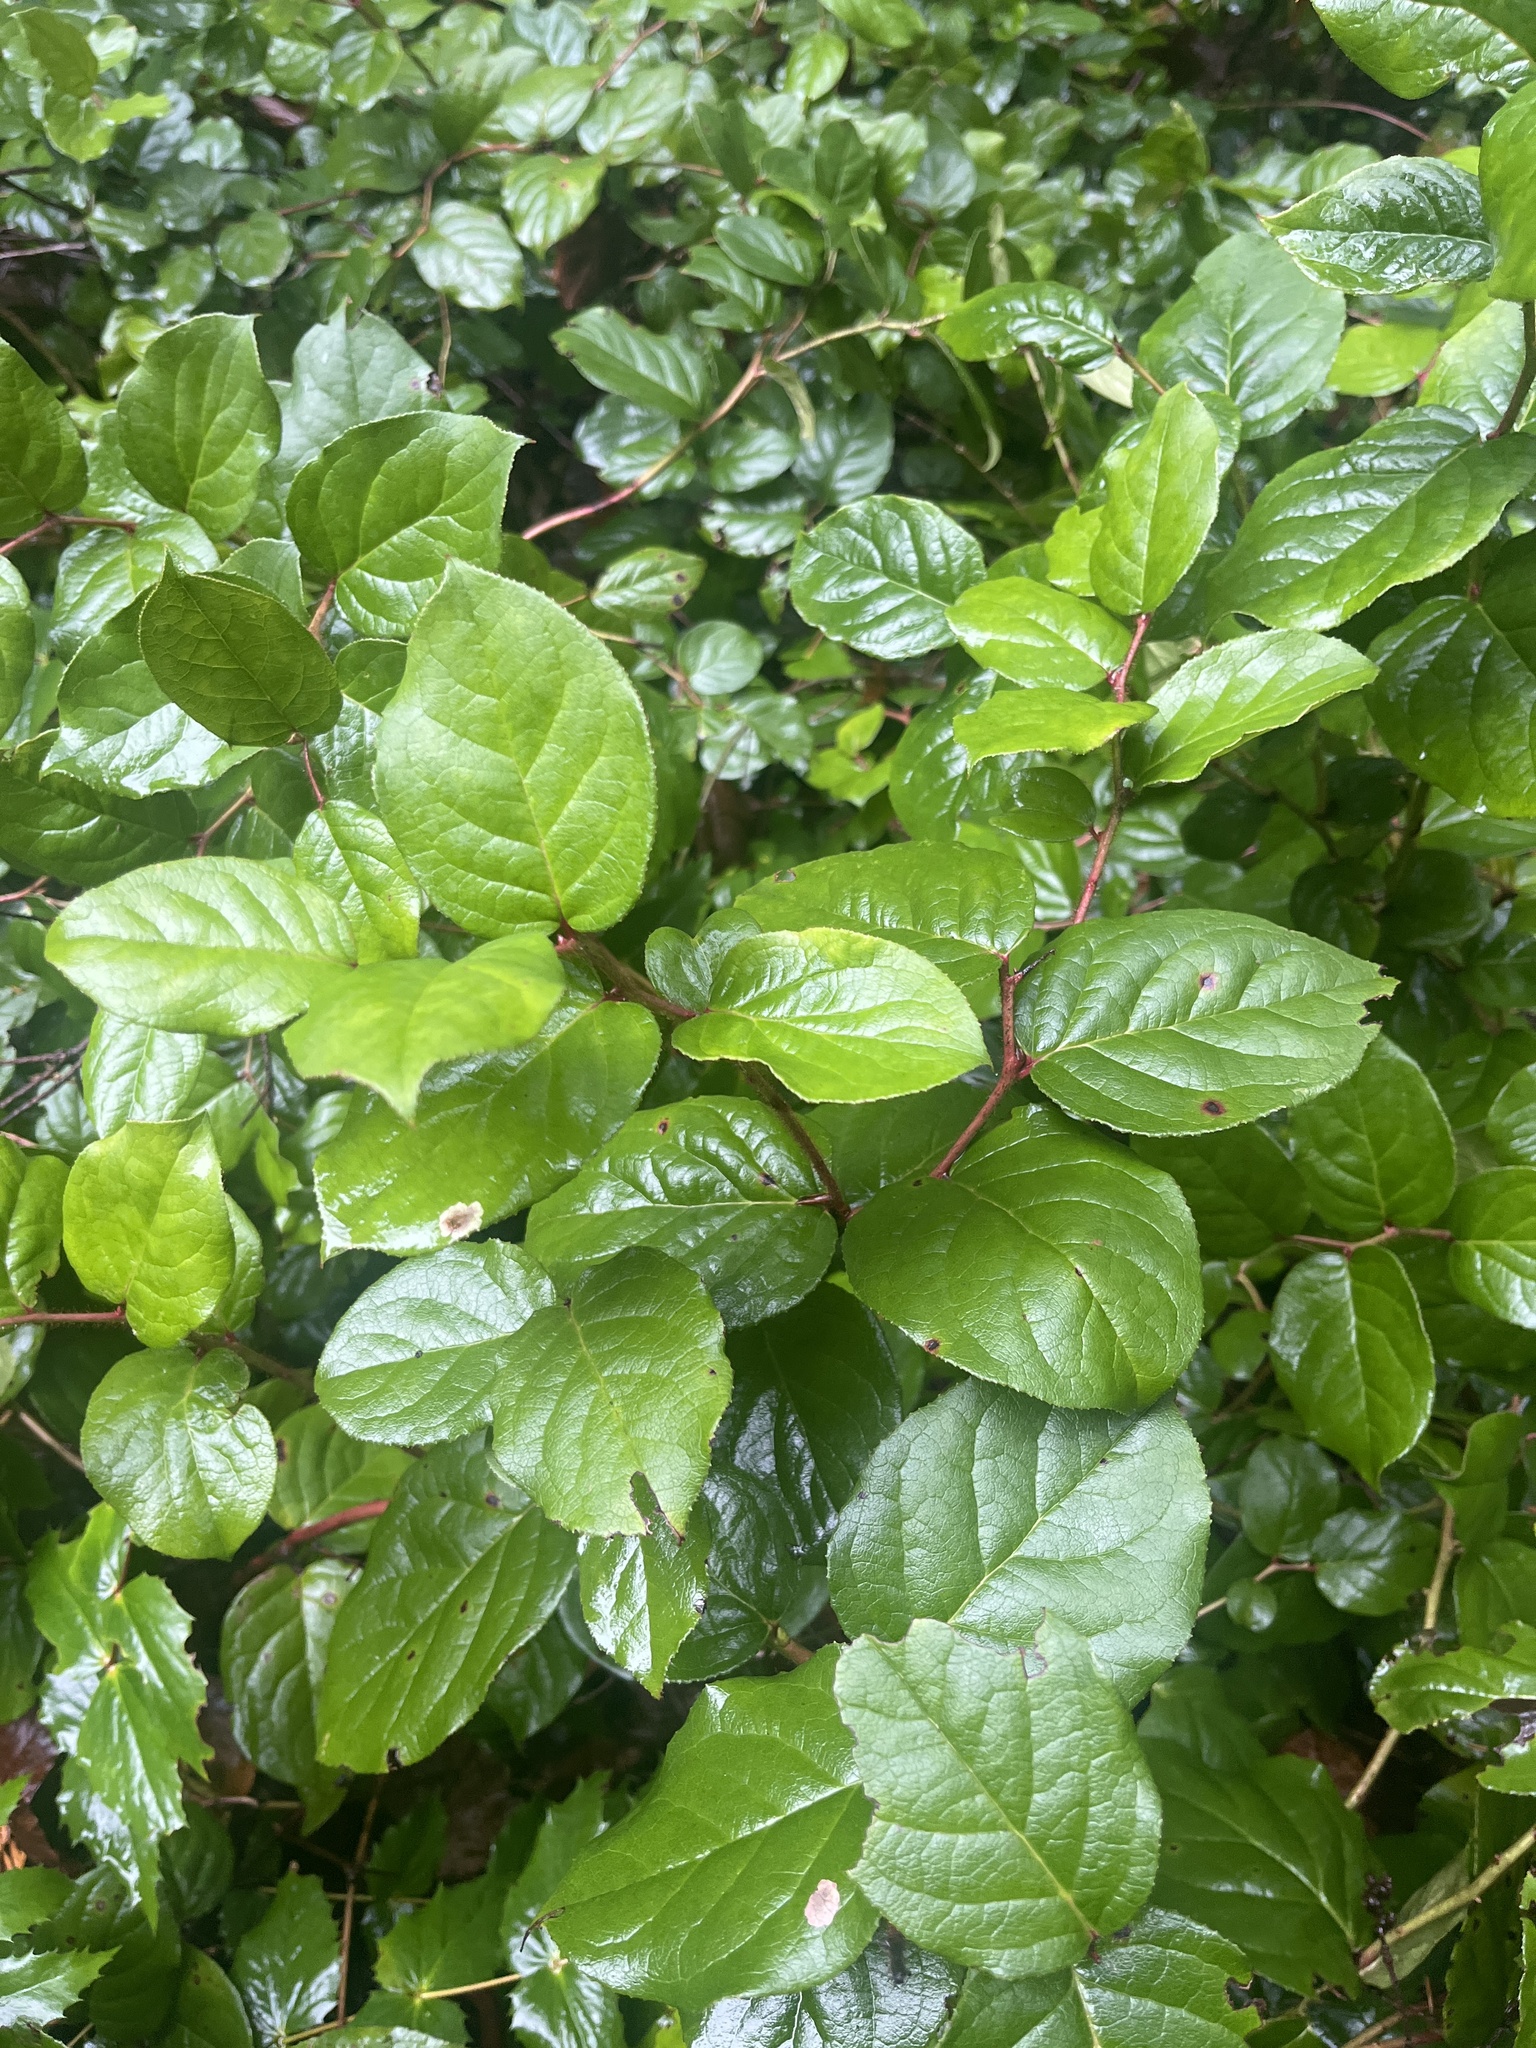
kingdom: Plantae
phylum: Tracheophyta
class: Magnoliopsida
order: Ericales
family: Ericaceae
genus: Gaultheria
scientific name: Gaultheria shallon
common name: Shallon
